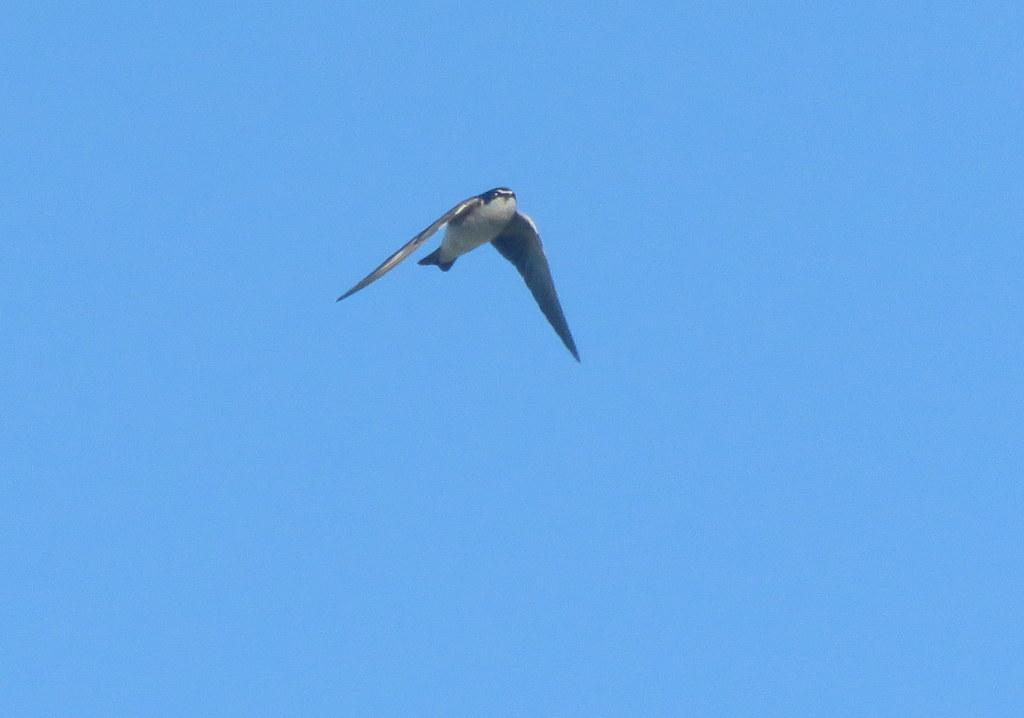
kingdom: Animalia
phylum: Chordata
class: Aves
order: Passeriformes
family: Hirundinidae
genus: Tachycineta
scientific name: Tachycineta leucorrhoa
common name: White-rumped swallow
